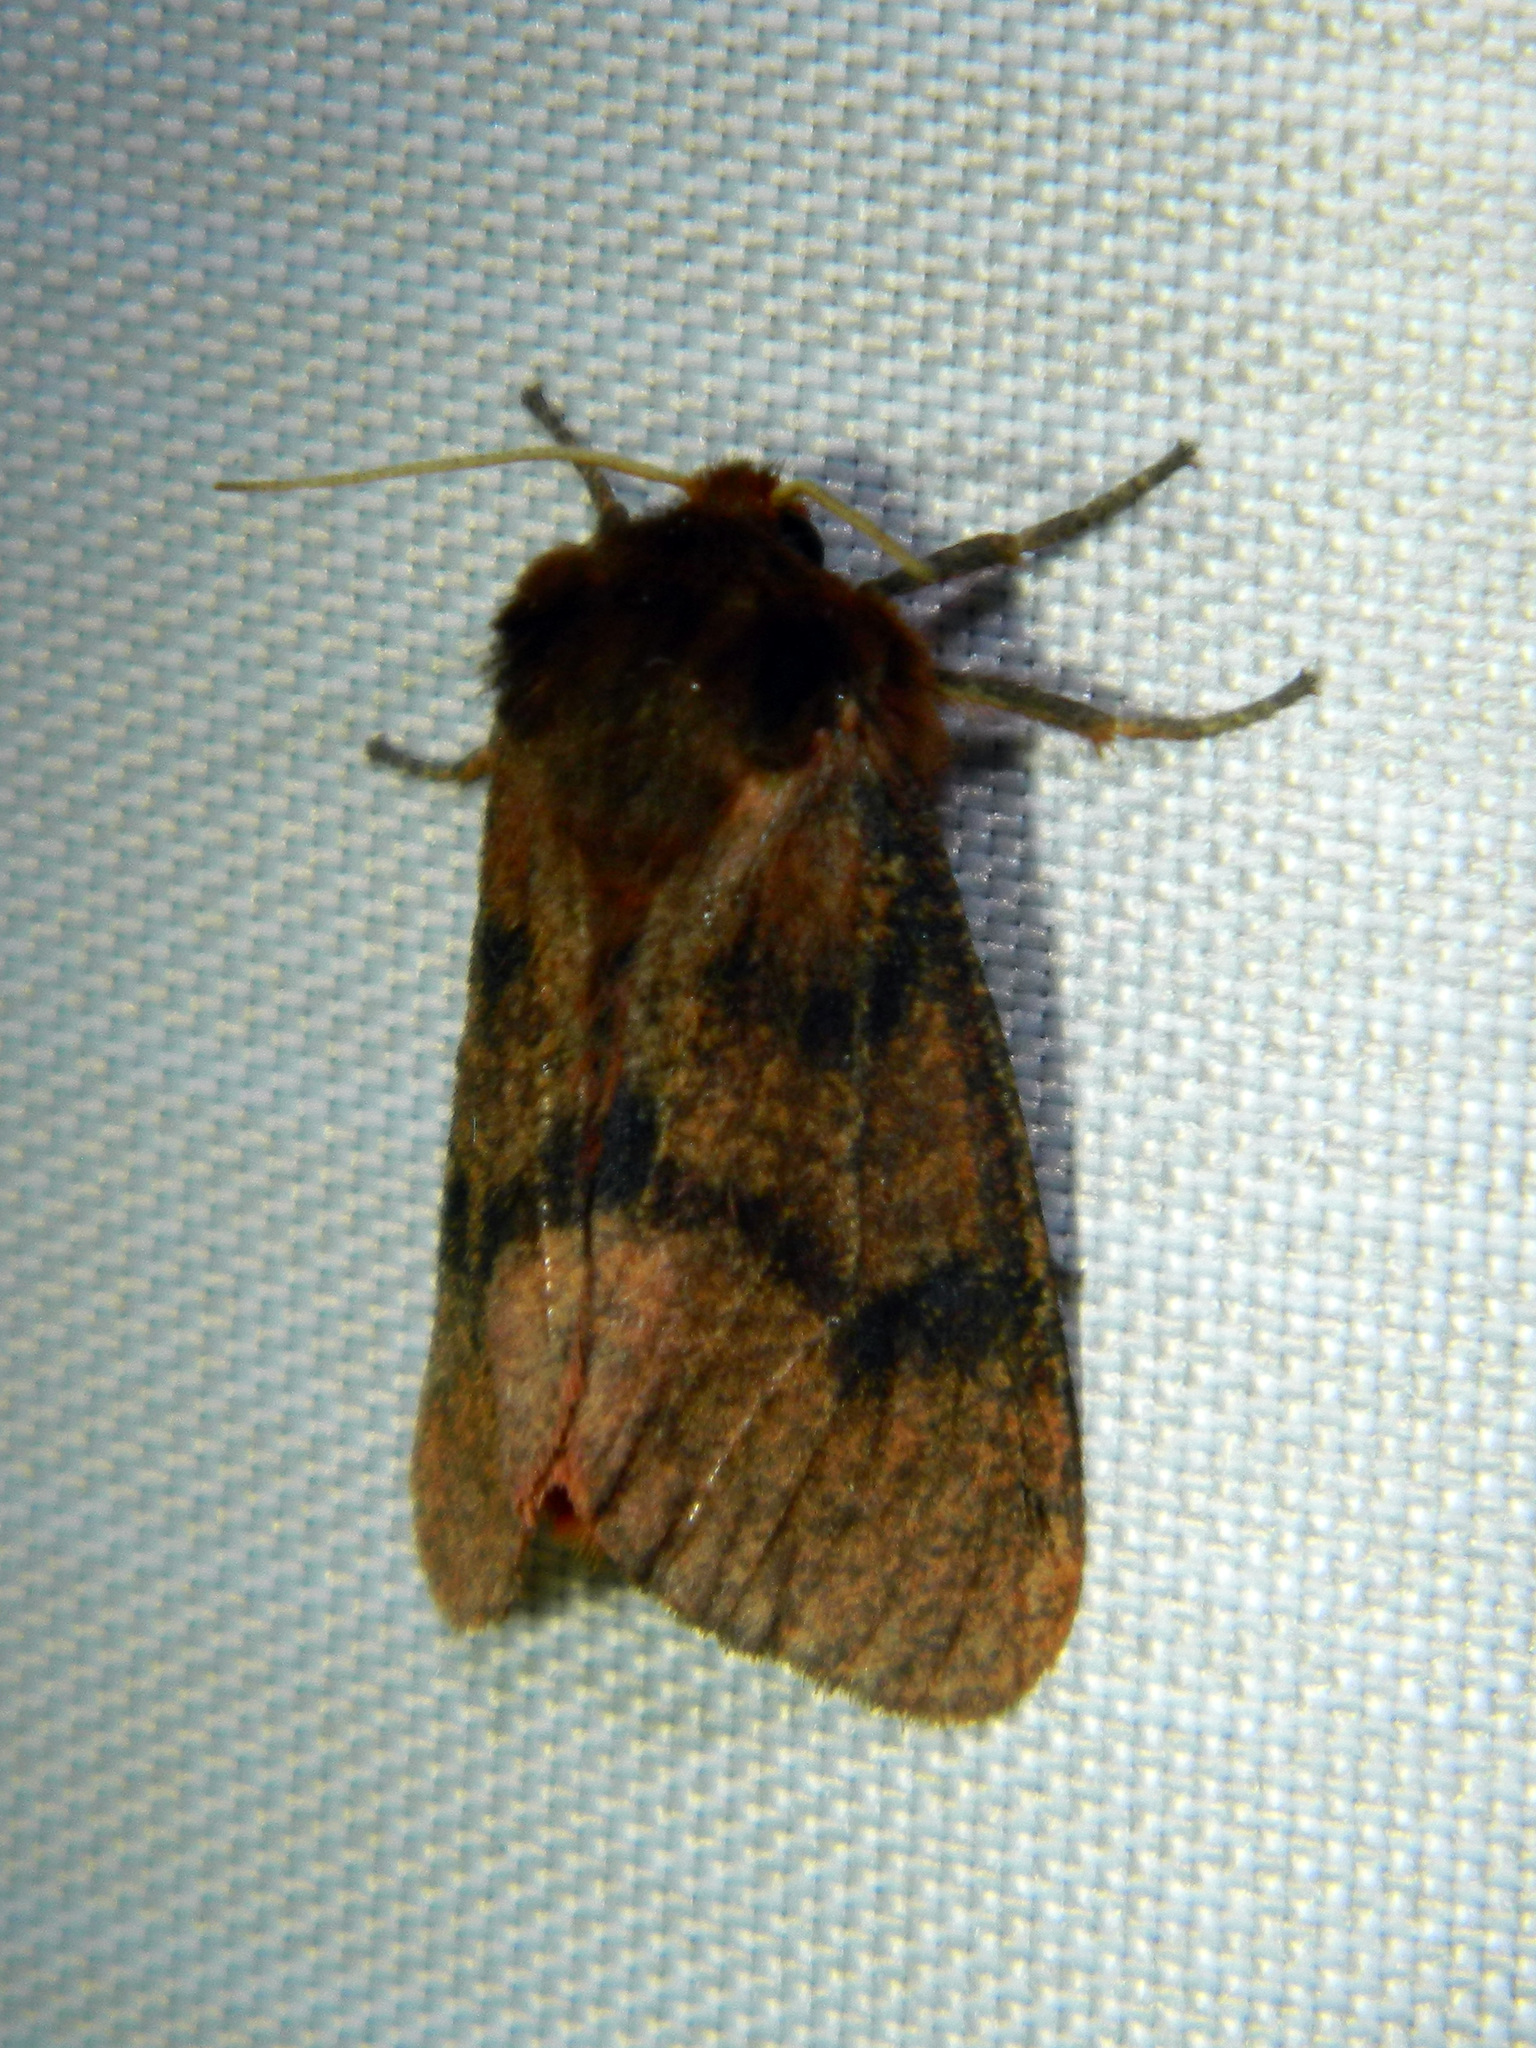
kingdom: Animalia
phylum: Arthropoda
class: Insecta
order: Lepidoptera
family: Erebidae
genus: Phragmatobia
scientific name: Phragmatobia assimilans
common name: Large ruby tiger moth
